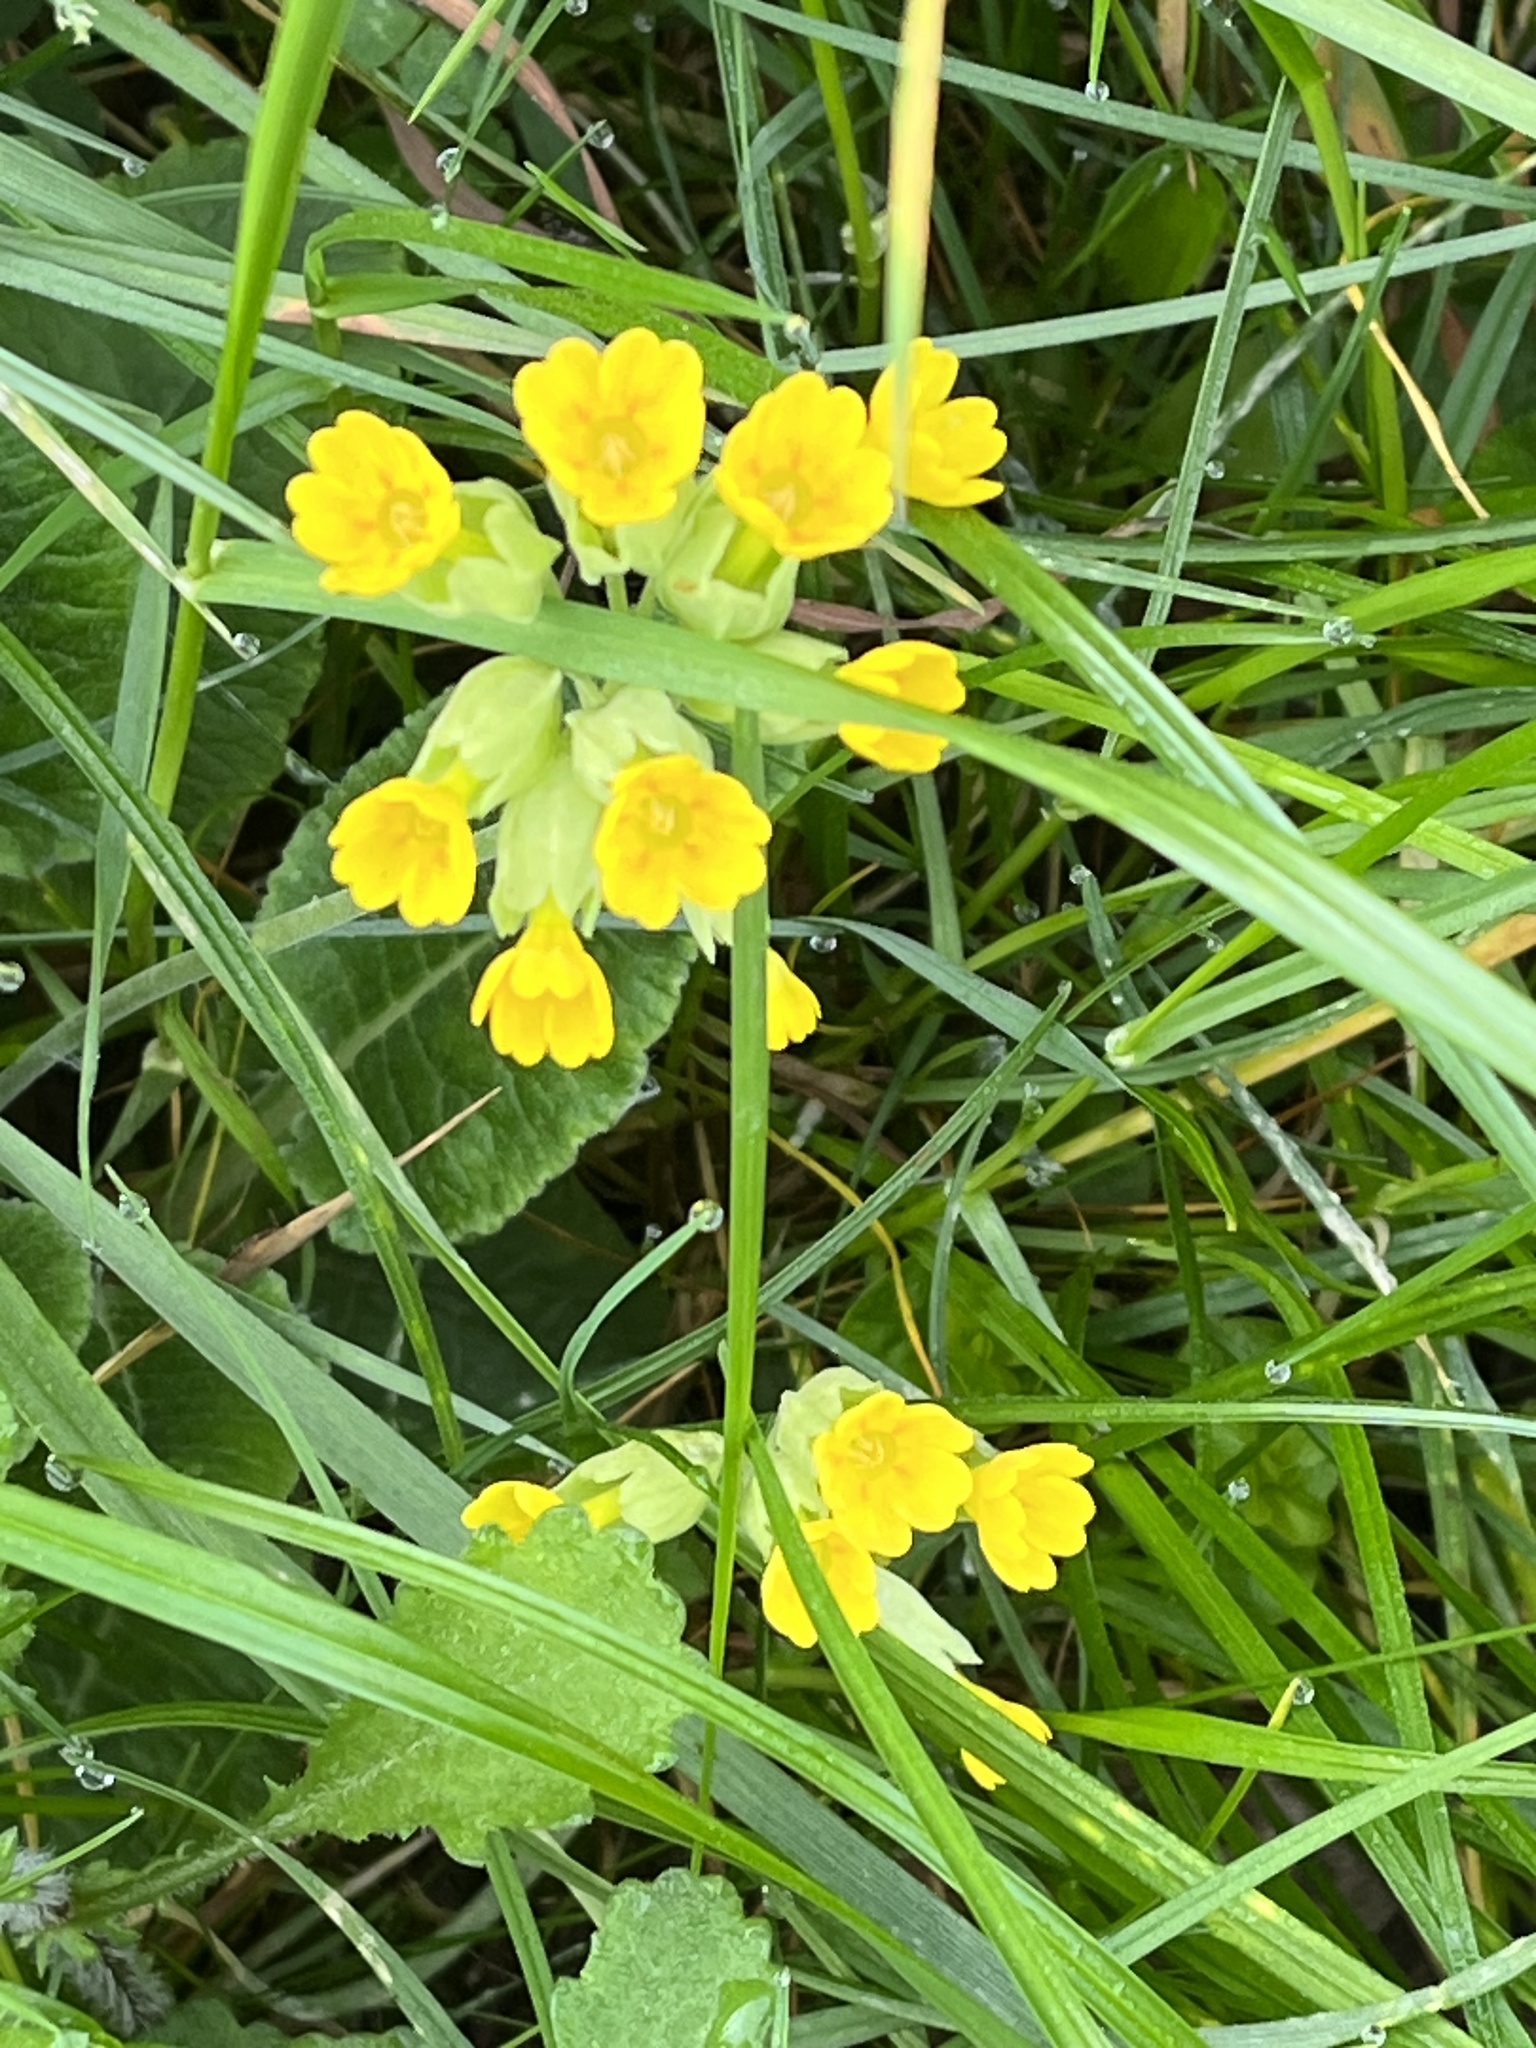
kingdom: Plantae
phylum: Tracheophyta
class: Magnoliopsida
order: Ericales
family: Primulaceae
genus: Primula
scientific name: Primula veris
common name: Cowslip
